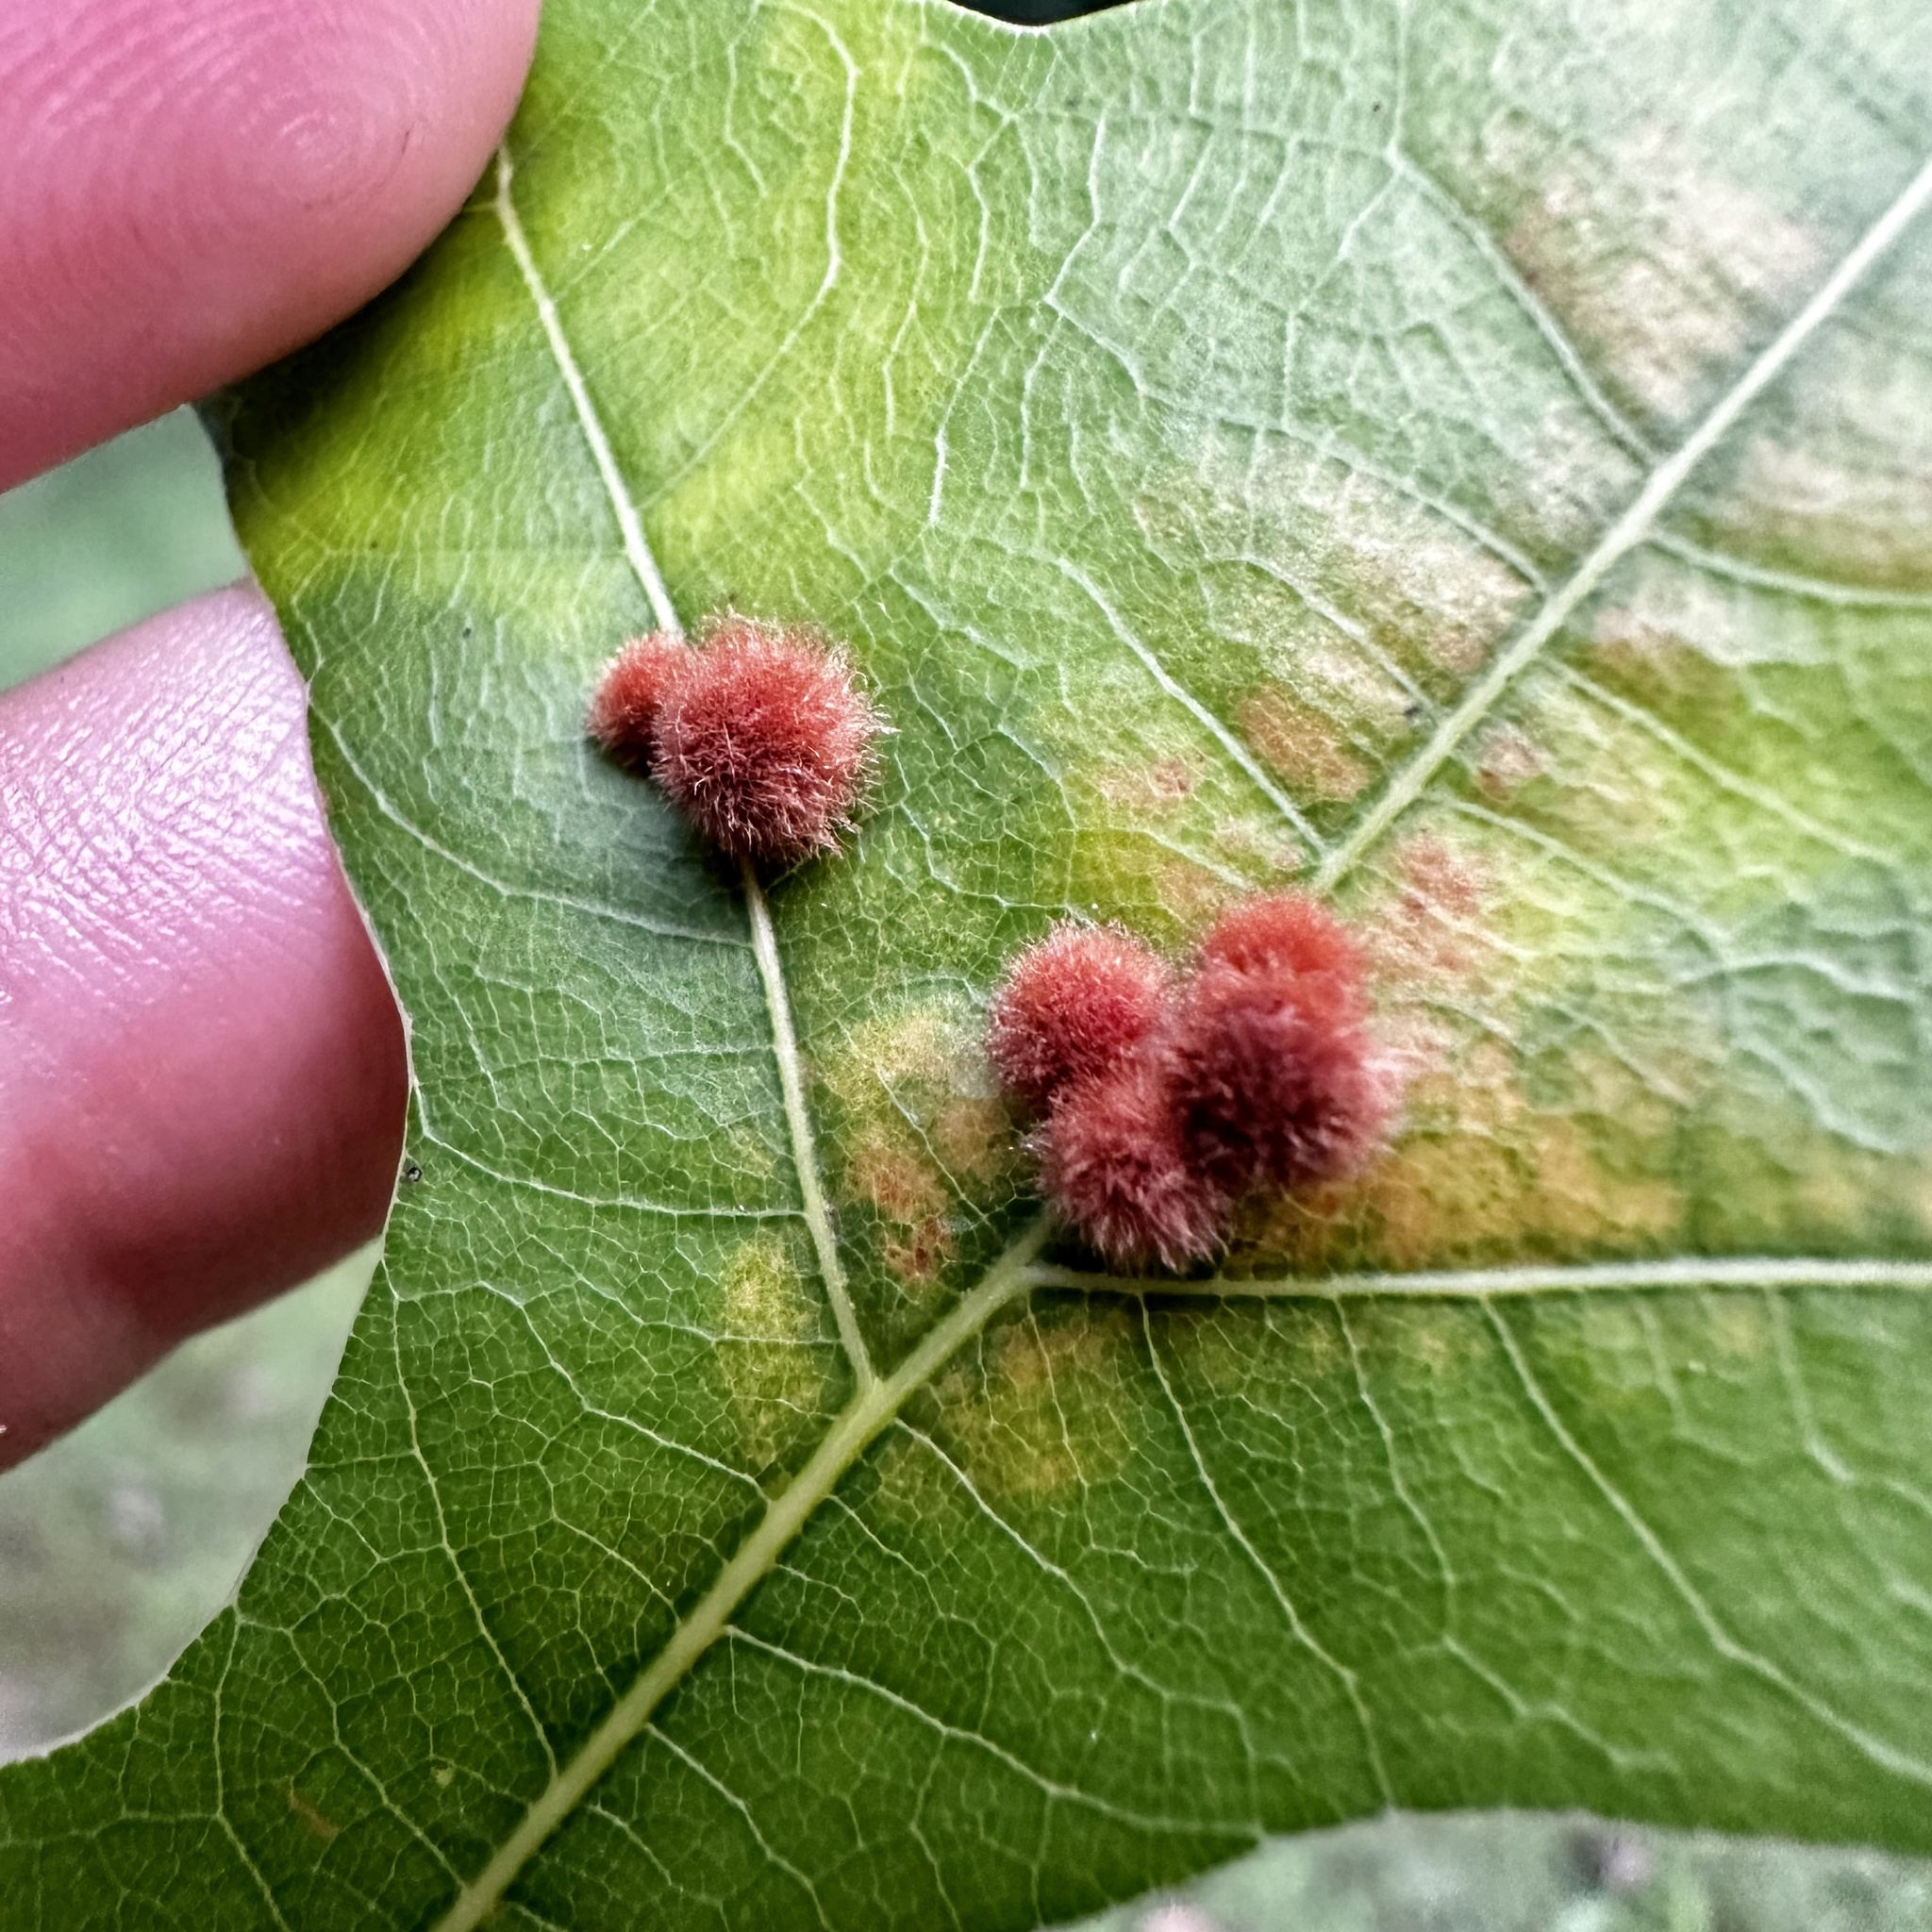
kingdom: Animalia
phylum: Arthropoda
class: Insecta
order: Hymenoptera
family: Cynipidae
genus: Callirhytis
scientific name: Callirhytis
